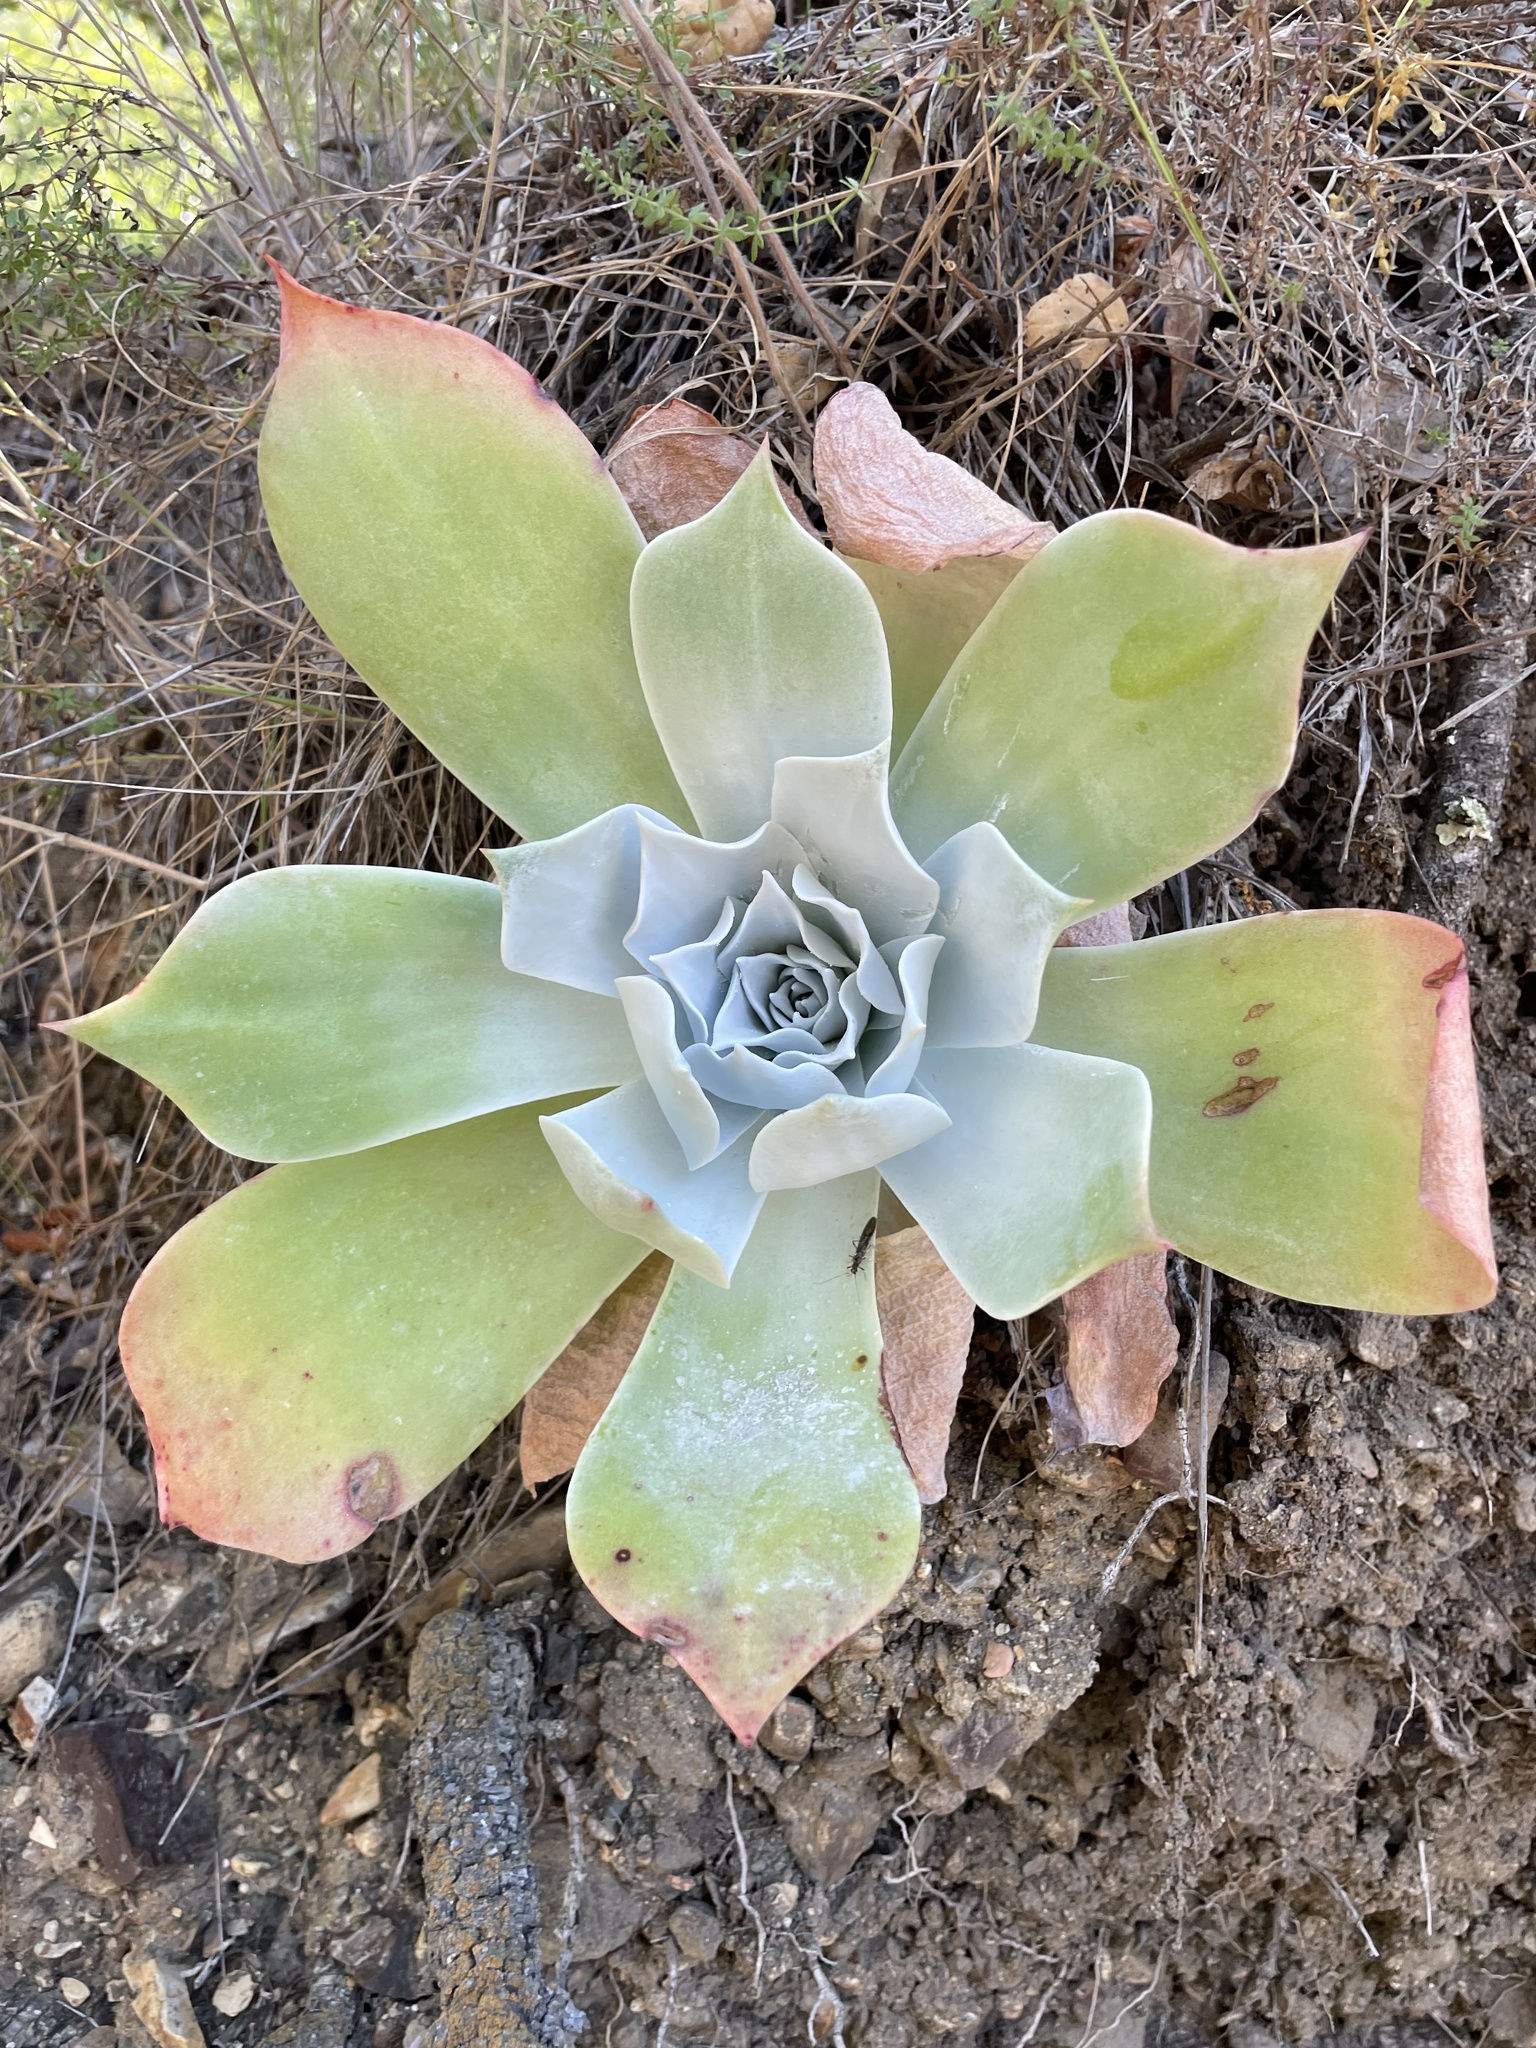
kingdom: Plantae
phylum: Tracheophyta
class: Magnoliopsida
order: Saxifragales
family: Crassulaceae
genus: Dudleya
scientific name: Dudleya pulverulenta
